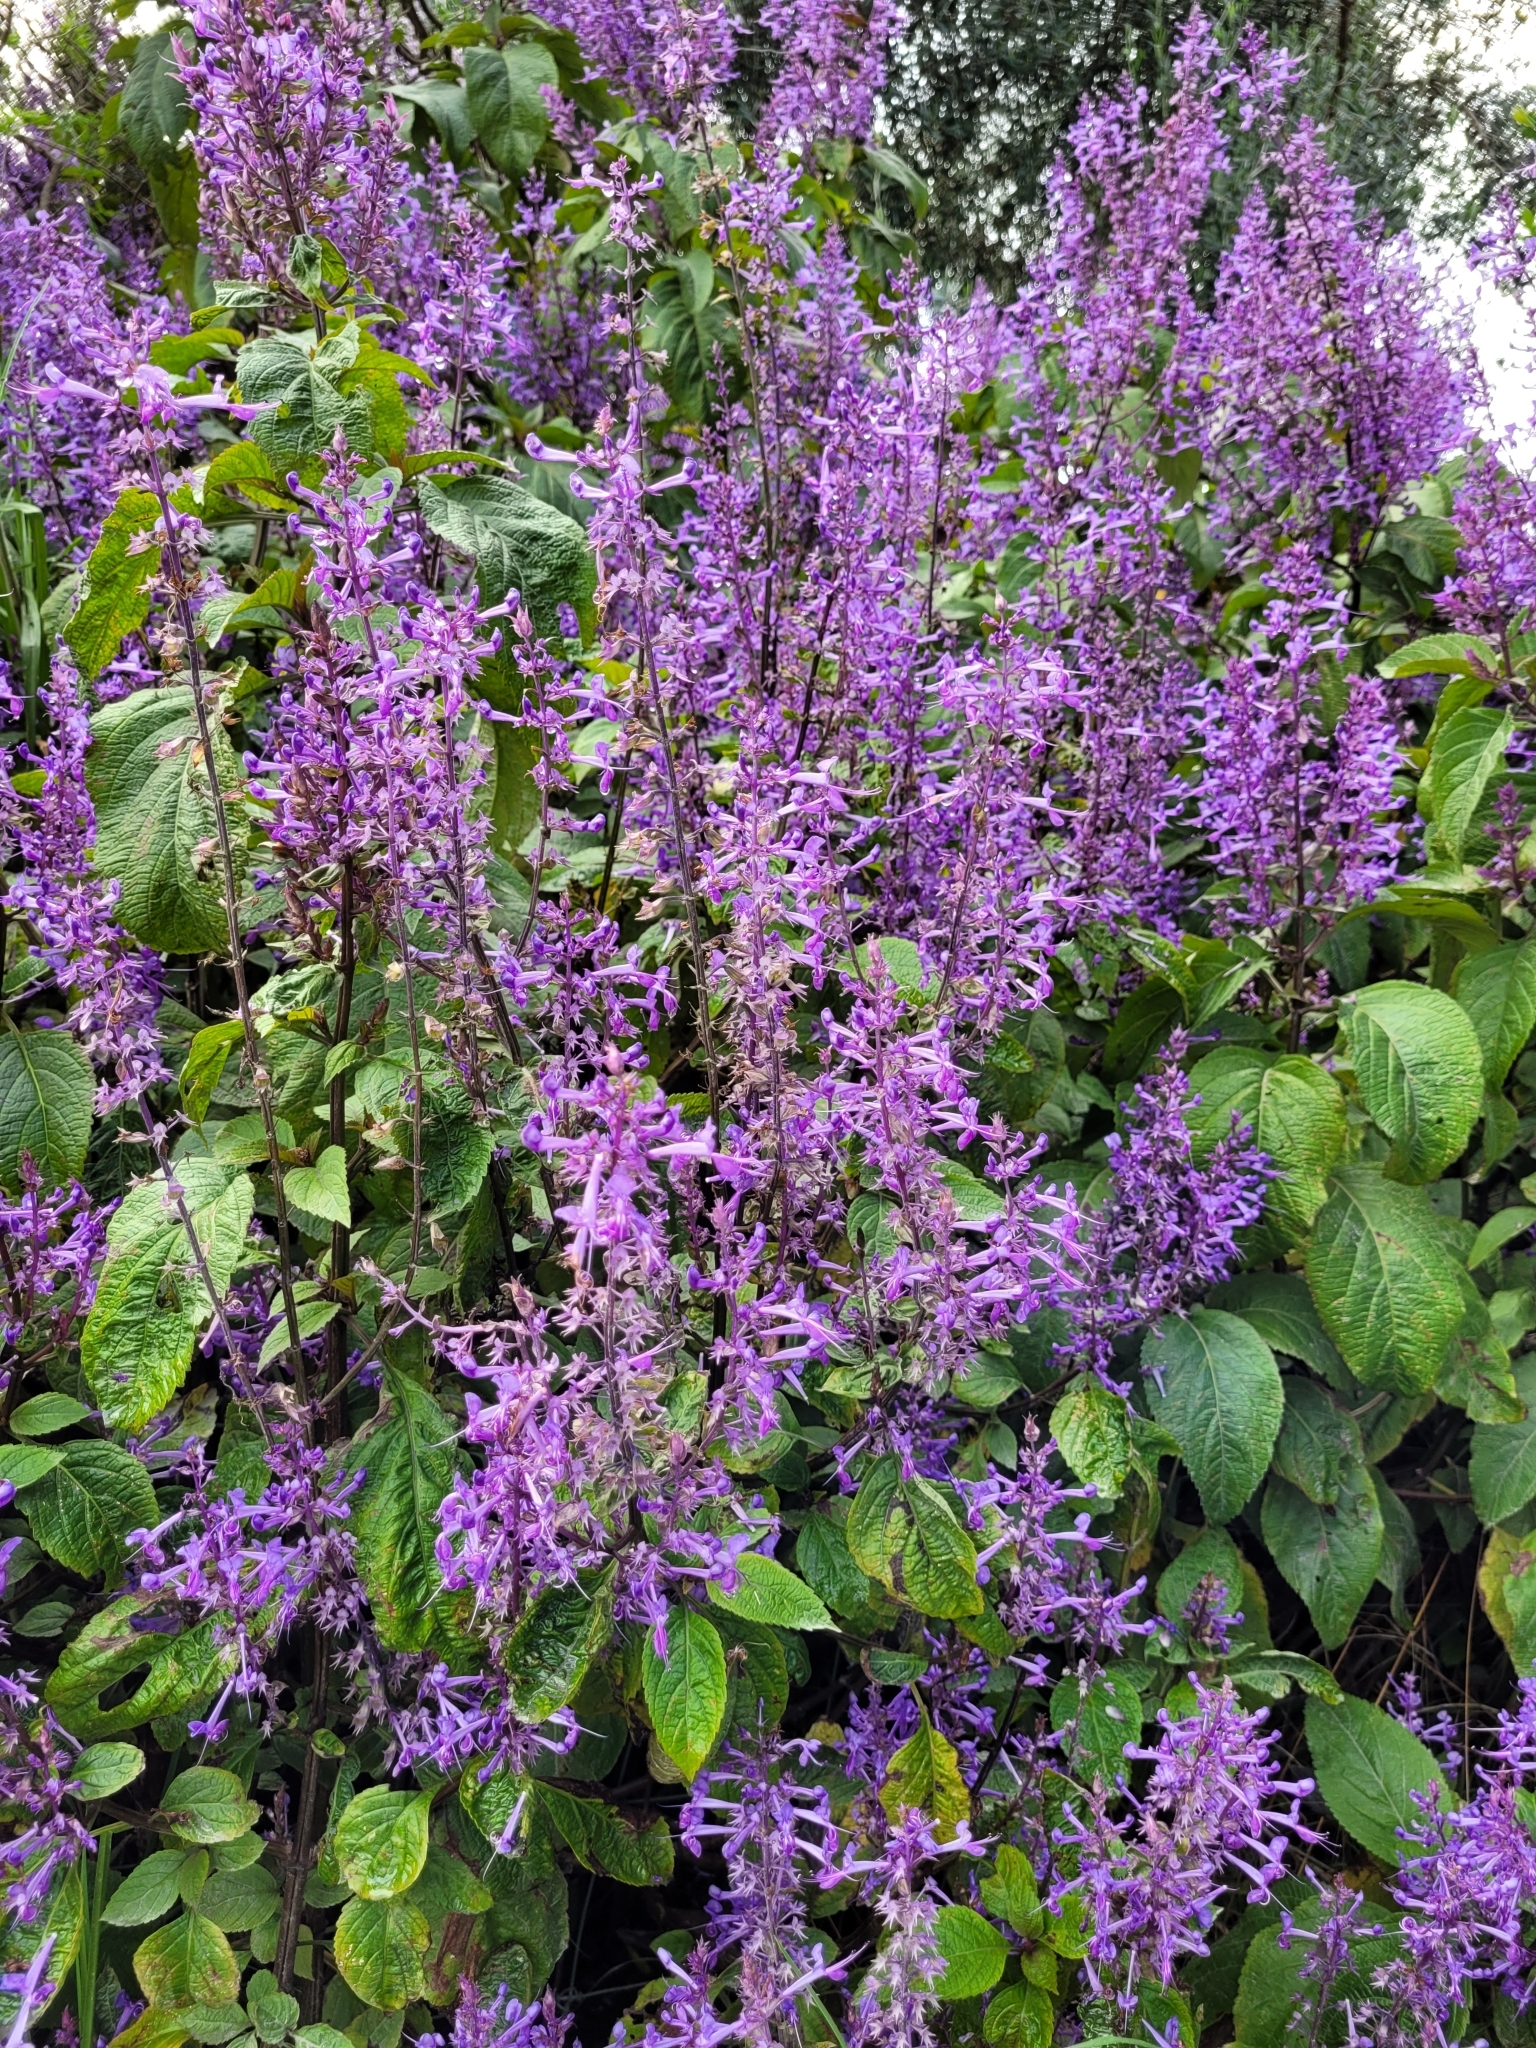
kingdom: Plantae
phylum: Tracheophyta
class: Magnoliopsida
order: Lamiales
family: Lamiaceae
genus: Plectranthus
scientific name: Plectranthus ecklonii
